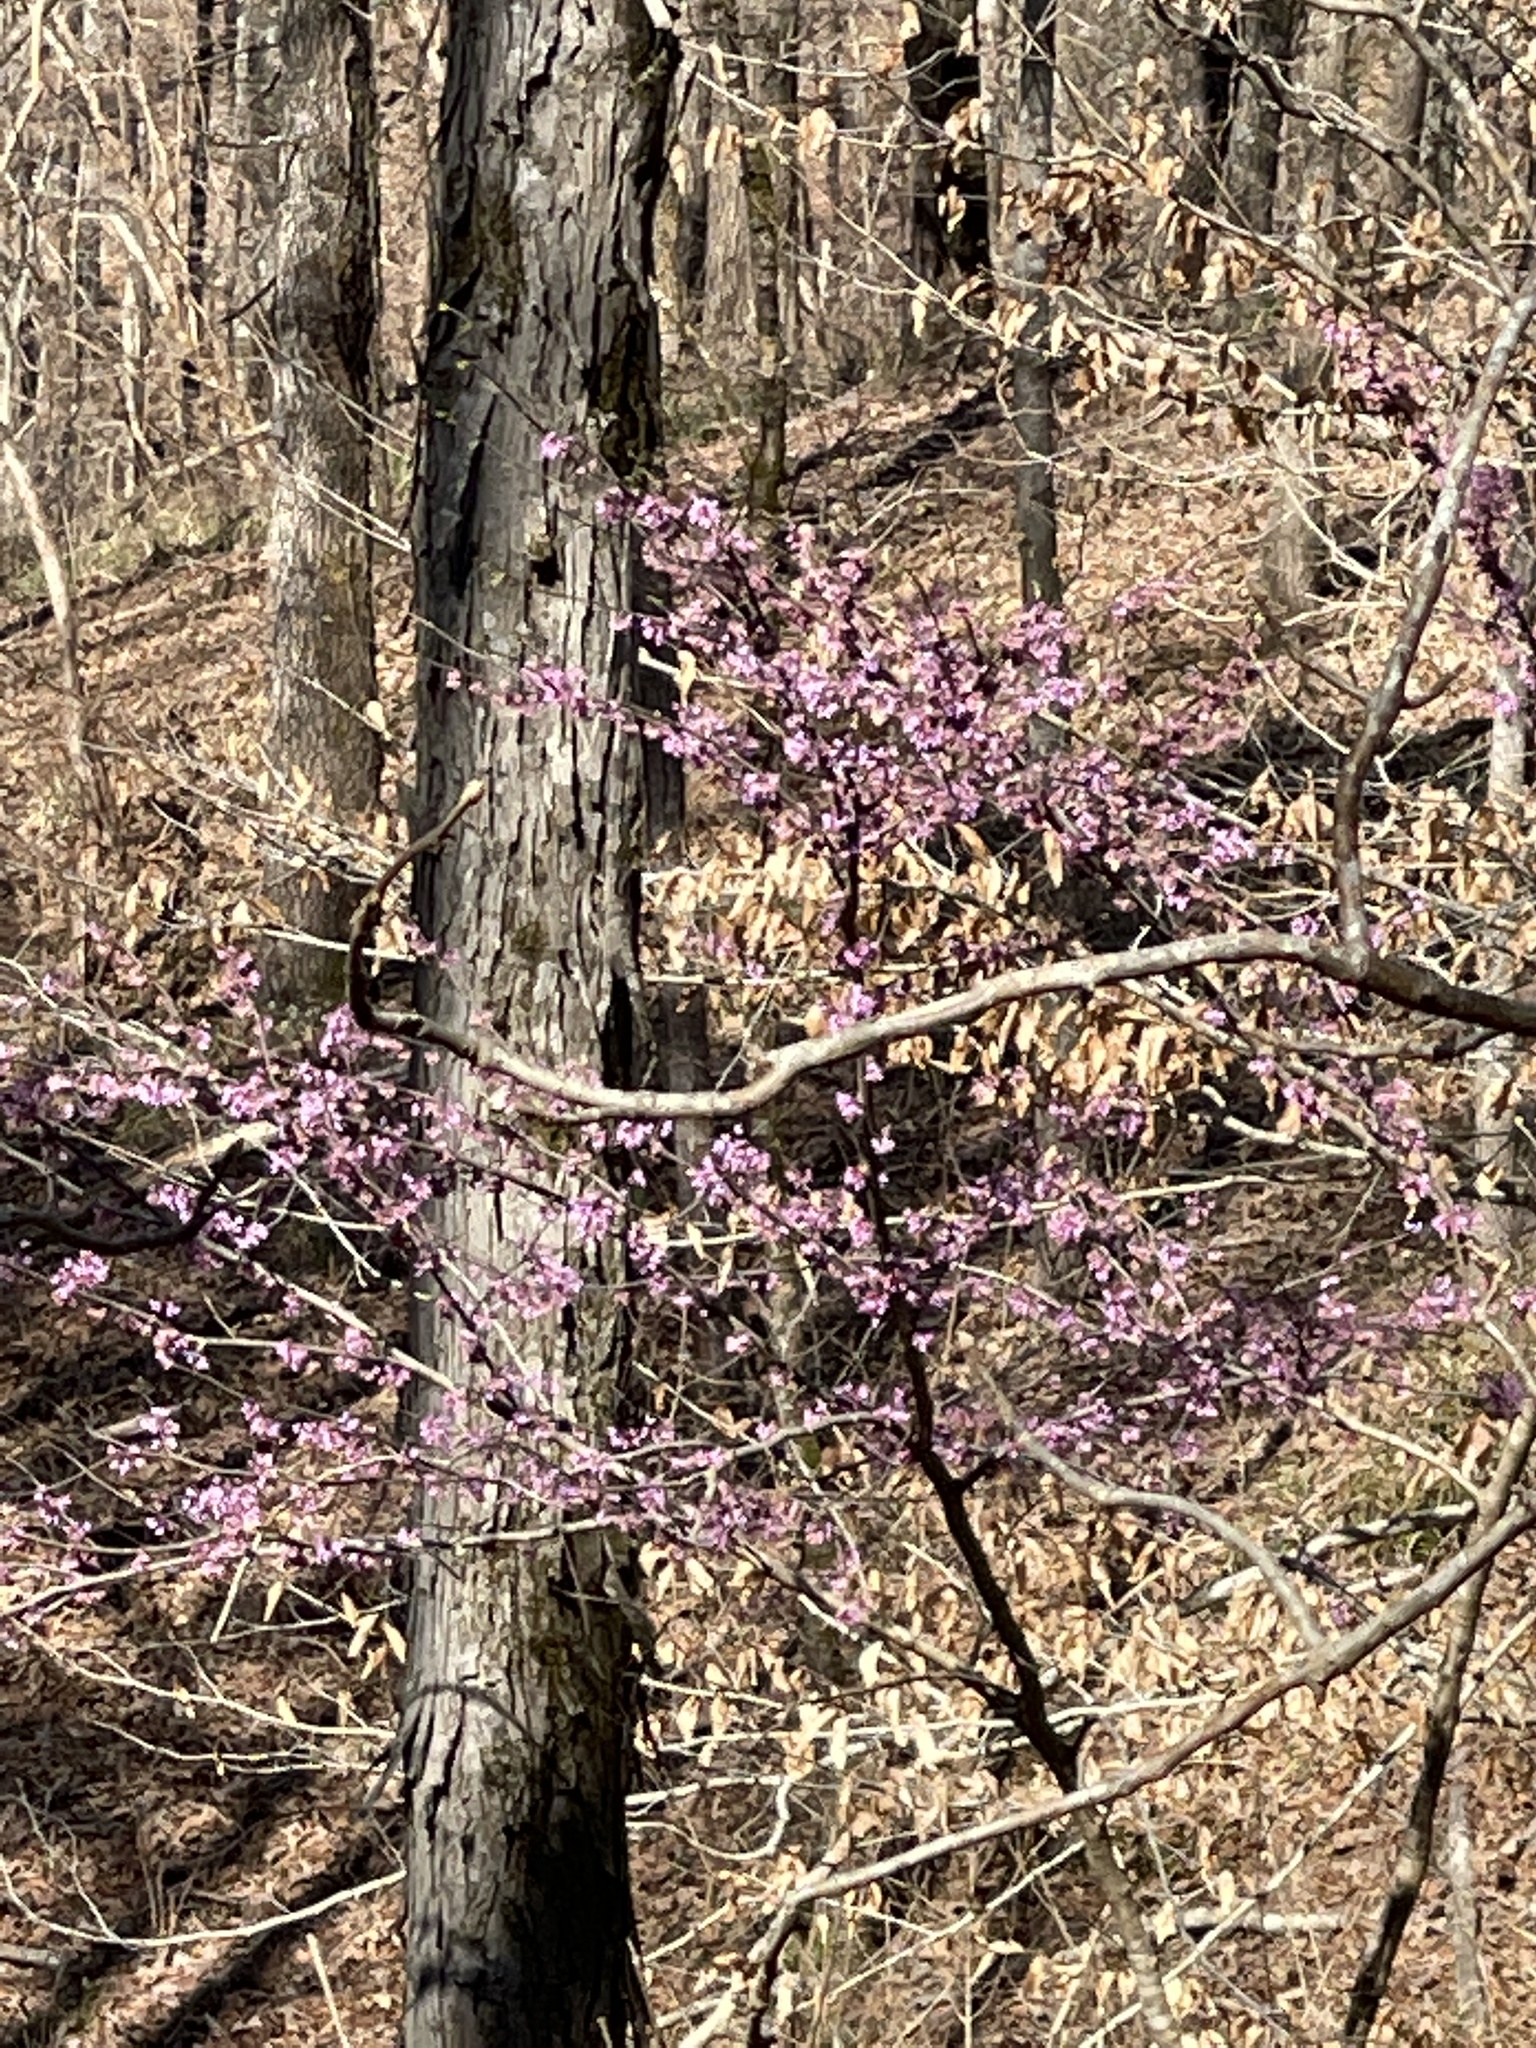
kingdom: Plantae
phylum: Tracheophyta
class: Magnoliopsida
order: Fabales
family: Fabaceae
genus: Cercis
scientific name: Cercis canadensis
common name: Eastern redbud
